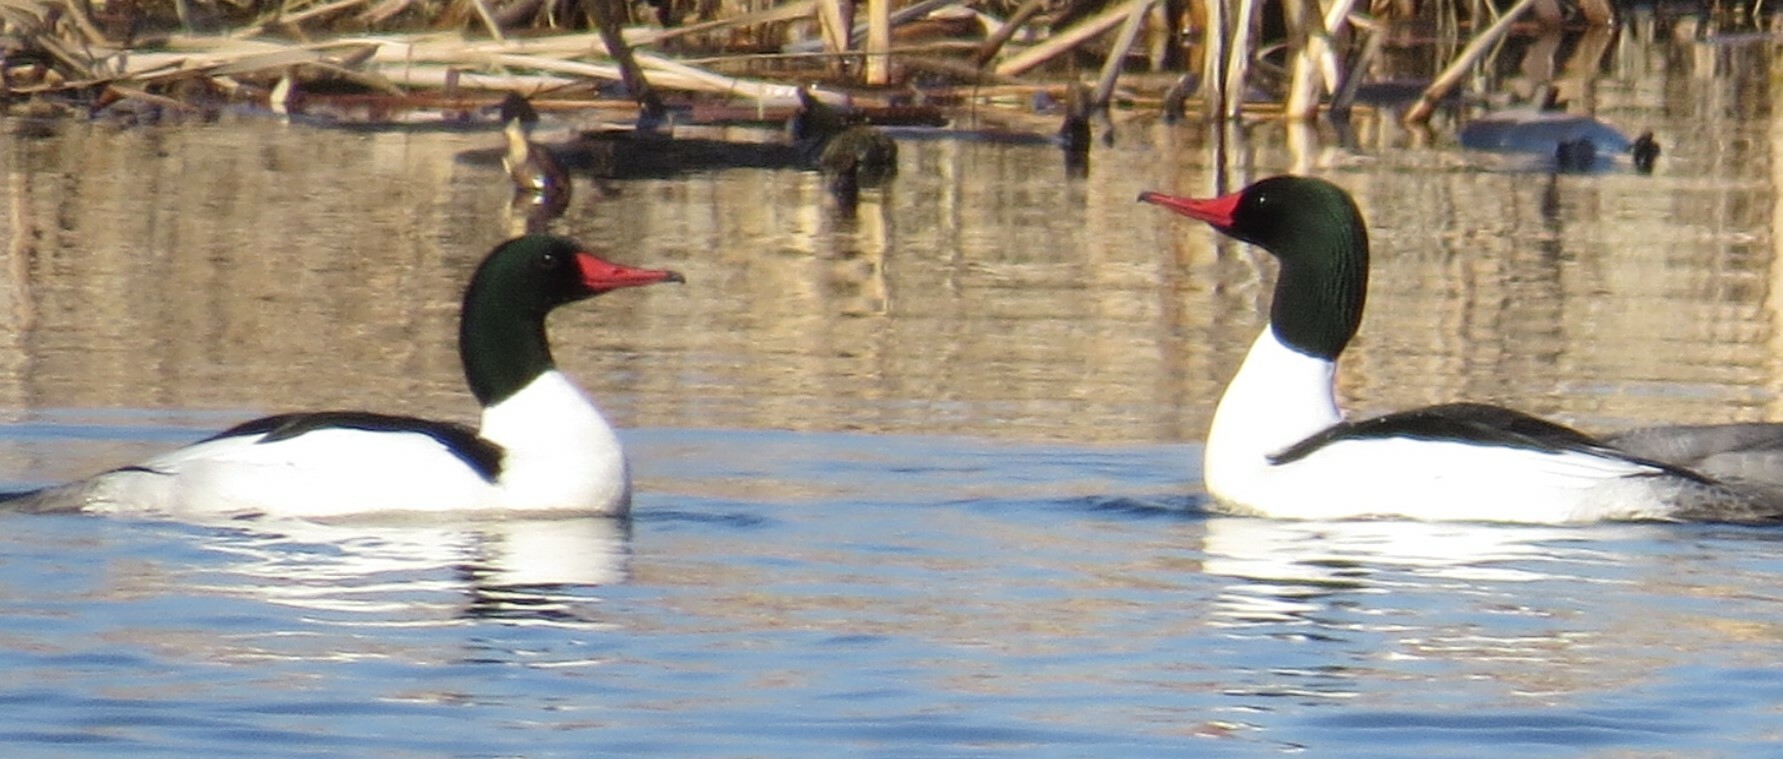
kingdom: Animalia
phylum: Chordata
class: Aves
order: Anseriformes
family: Anatidae
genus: Mergus
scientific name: Mergus merganser
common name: Common merganser
